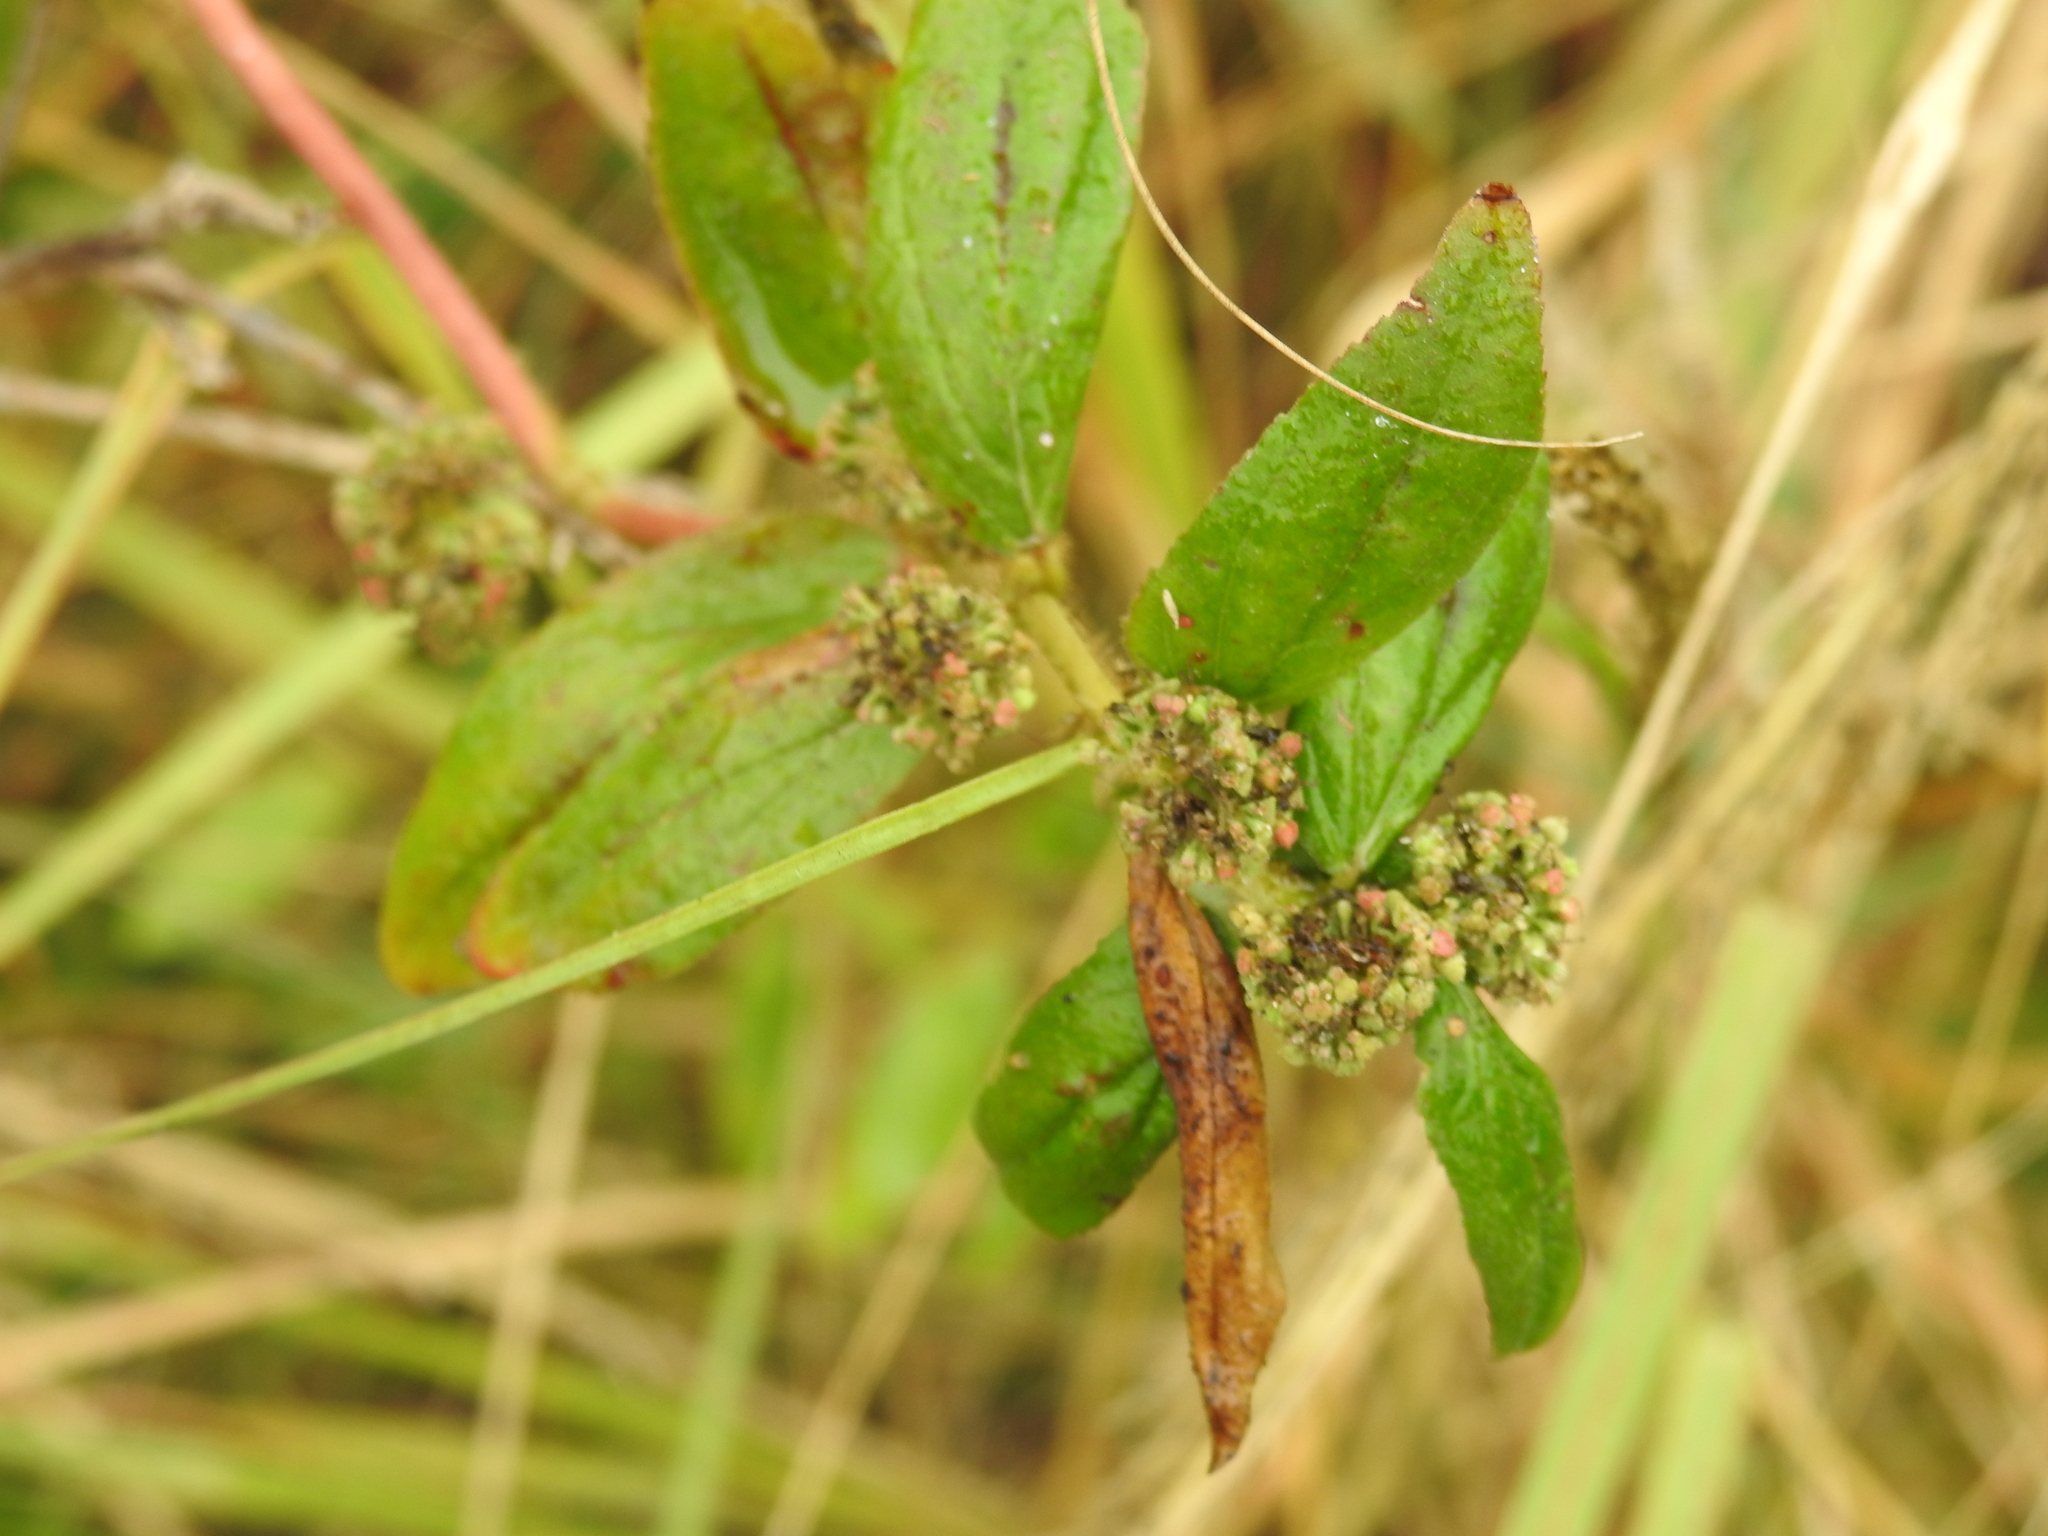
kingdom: Plantae
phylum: Tracheophyta
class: Magnoliopsida
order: Malpighiales
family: Euphorbiaceae
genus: Euphorbia
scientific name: Euphorbia hirta
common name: Pillpod sandmat
